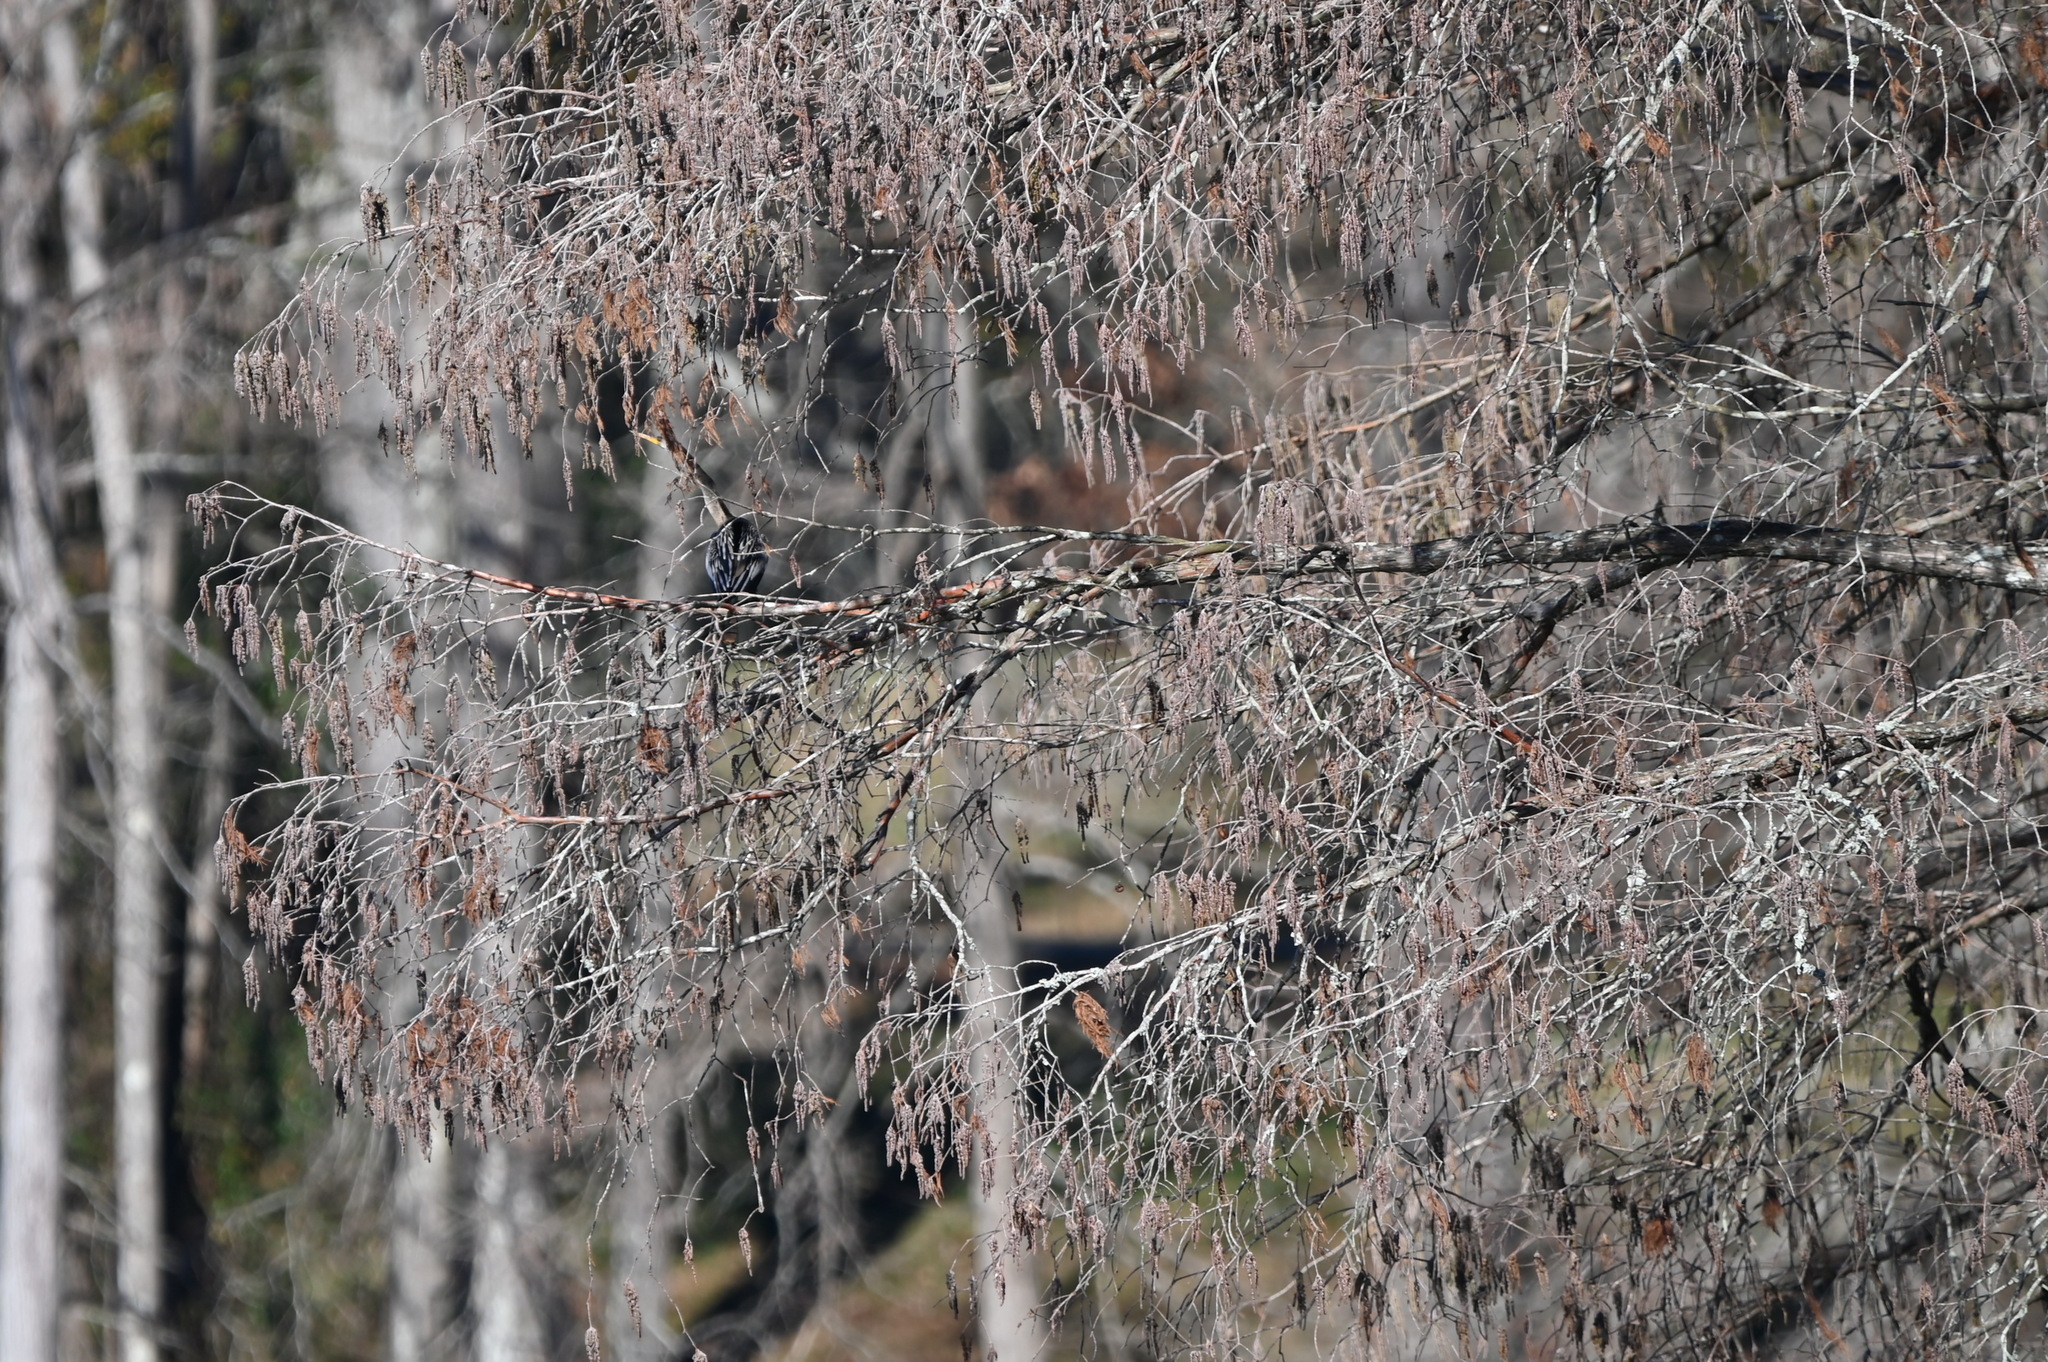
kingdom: Animalia
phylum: Chordata
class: Aves
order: Suliformes
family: Anhingidae
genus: Anhinga
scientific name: Anhinga anhinga
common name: Anhinga
